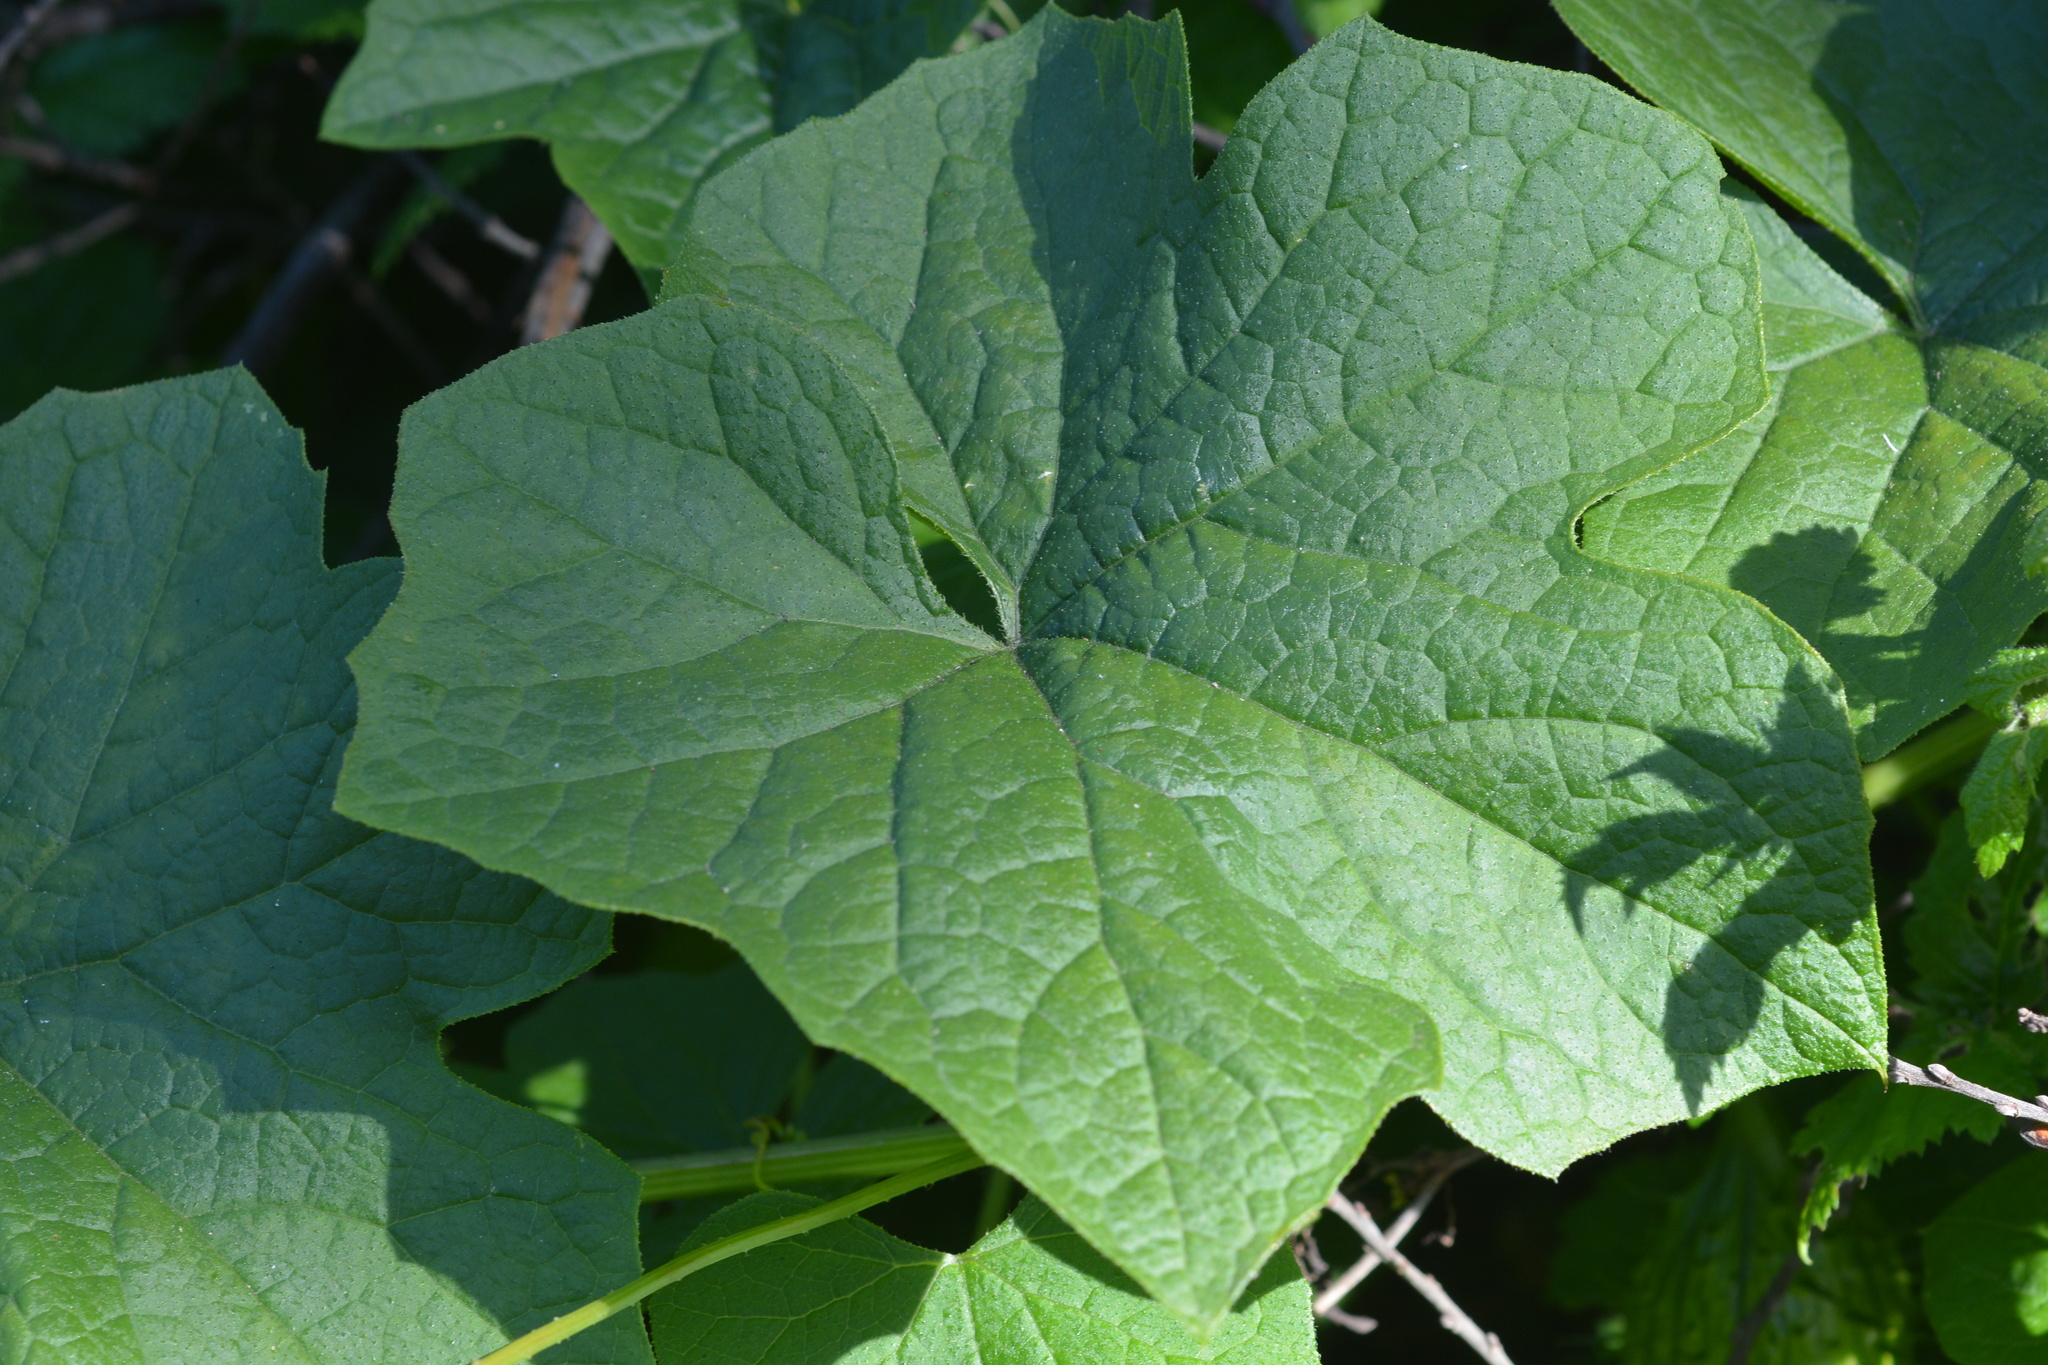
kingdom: Plantae
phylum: Tracheophyta
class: Magnoliopsida
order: Cucurbitales
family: Cucurbitaceae
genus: Marah
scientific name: Marah oregana
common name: Coastal manroot
